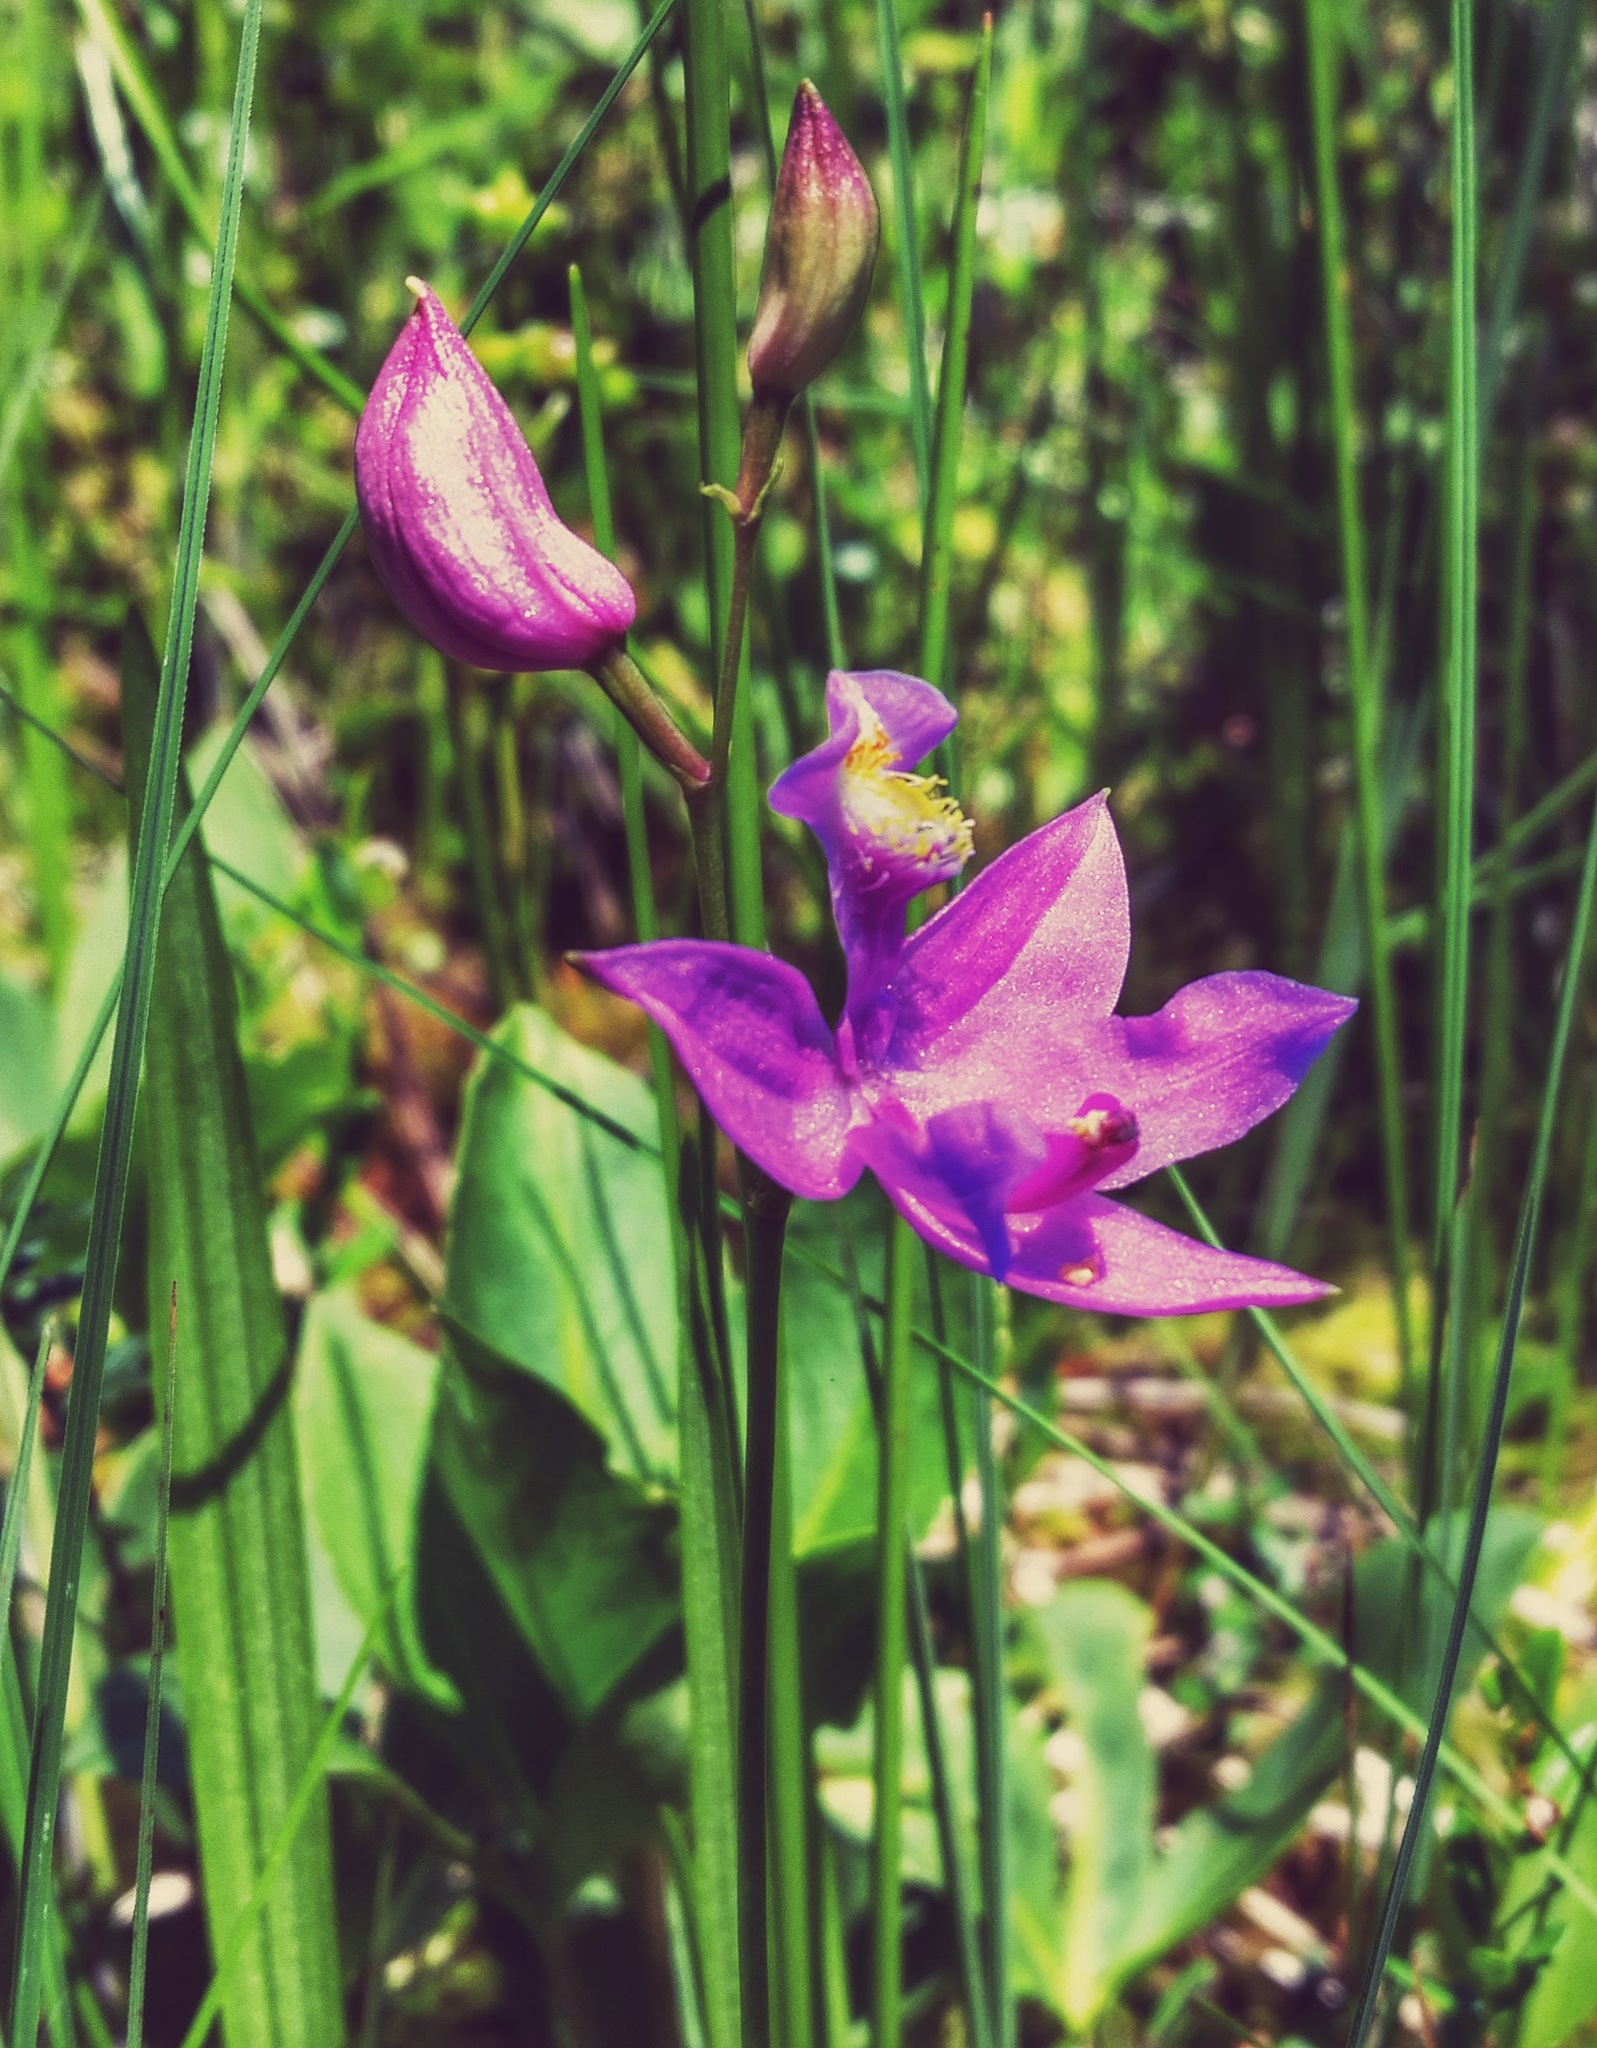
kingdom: Plantae
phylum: Tracheophyta
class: Liliopsida
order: Asparagales
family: Orchidaceae
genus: Calopogon
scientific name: Calopogon tuberosus
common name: Grass-pink
